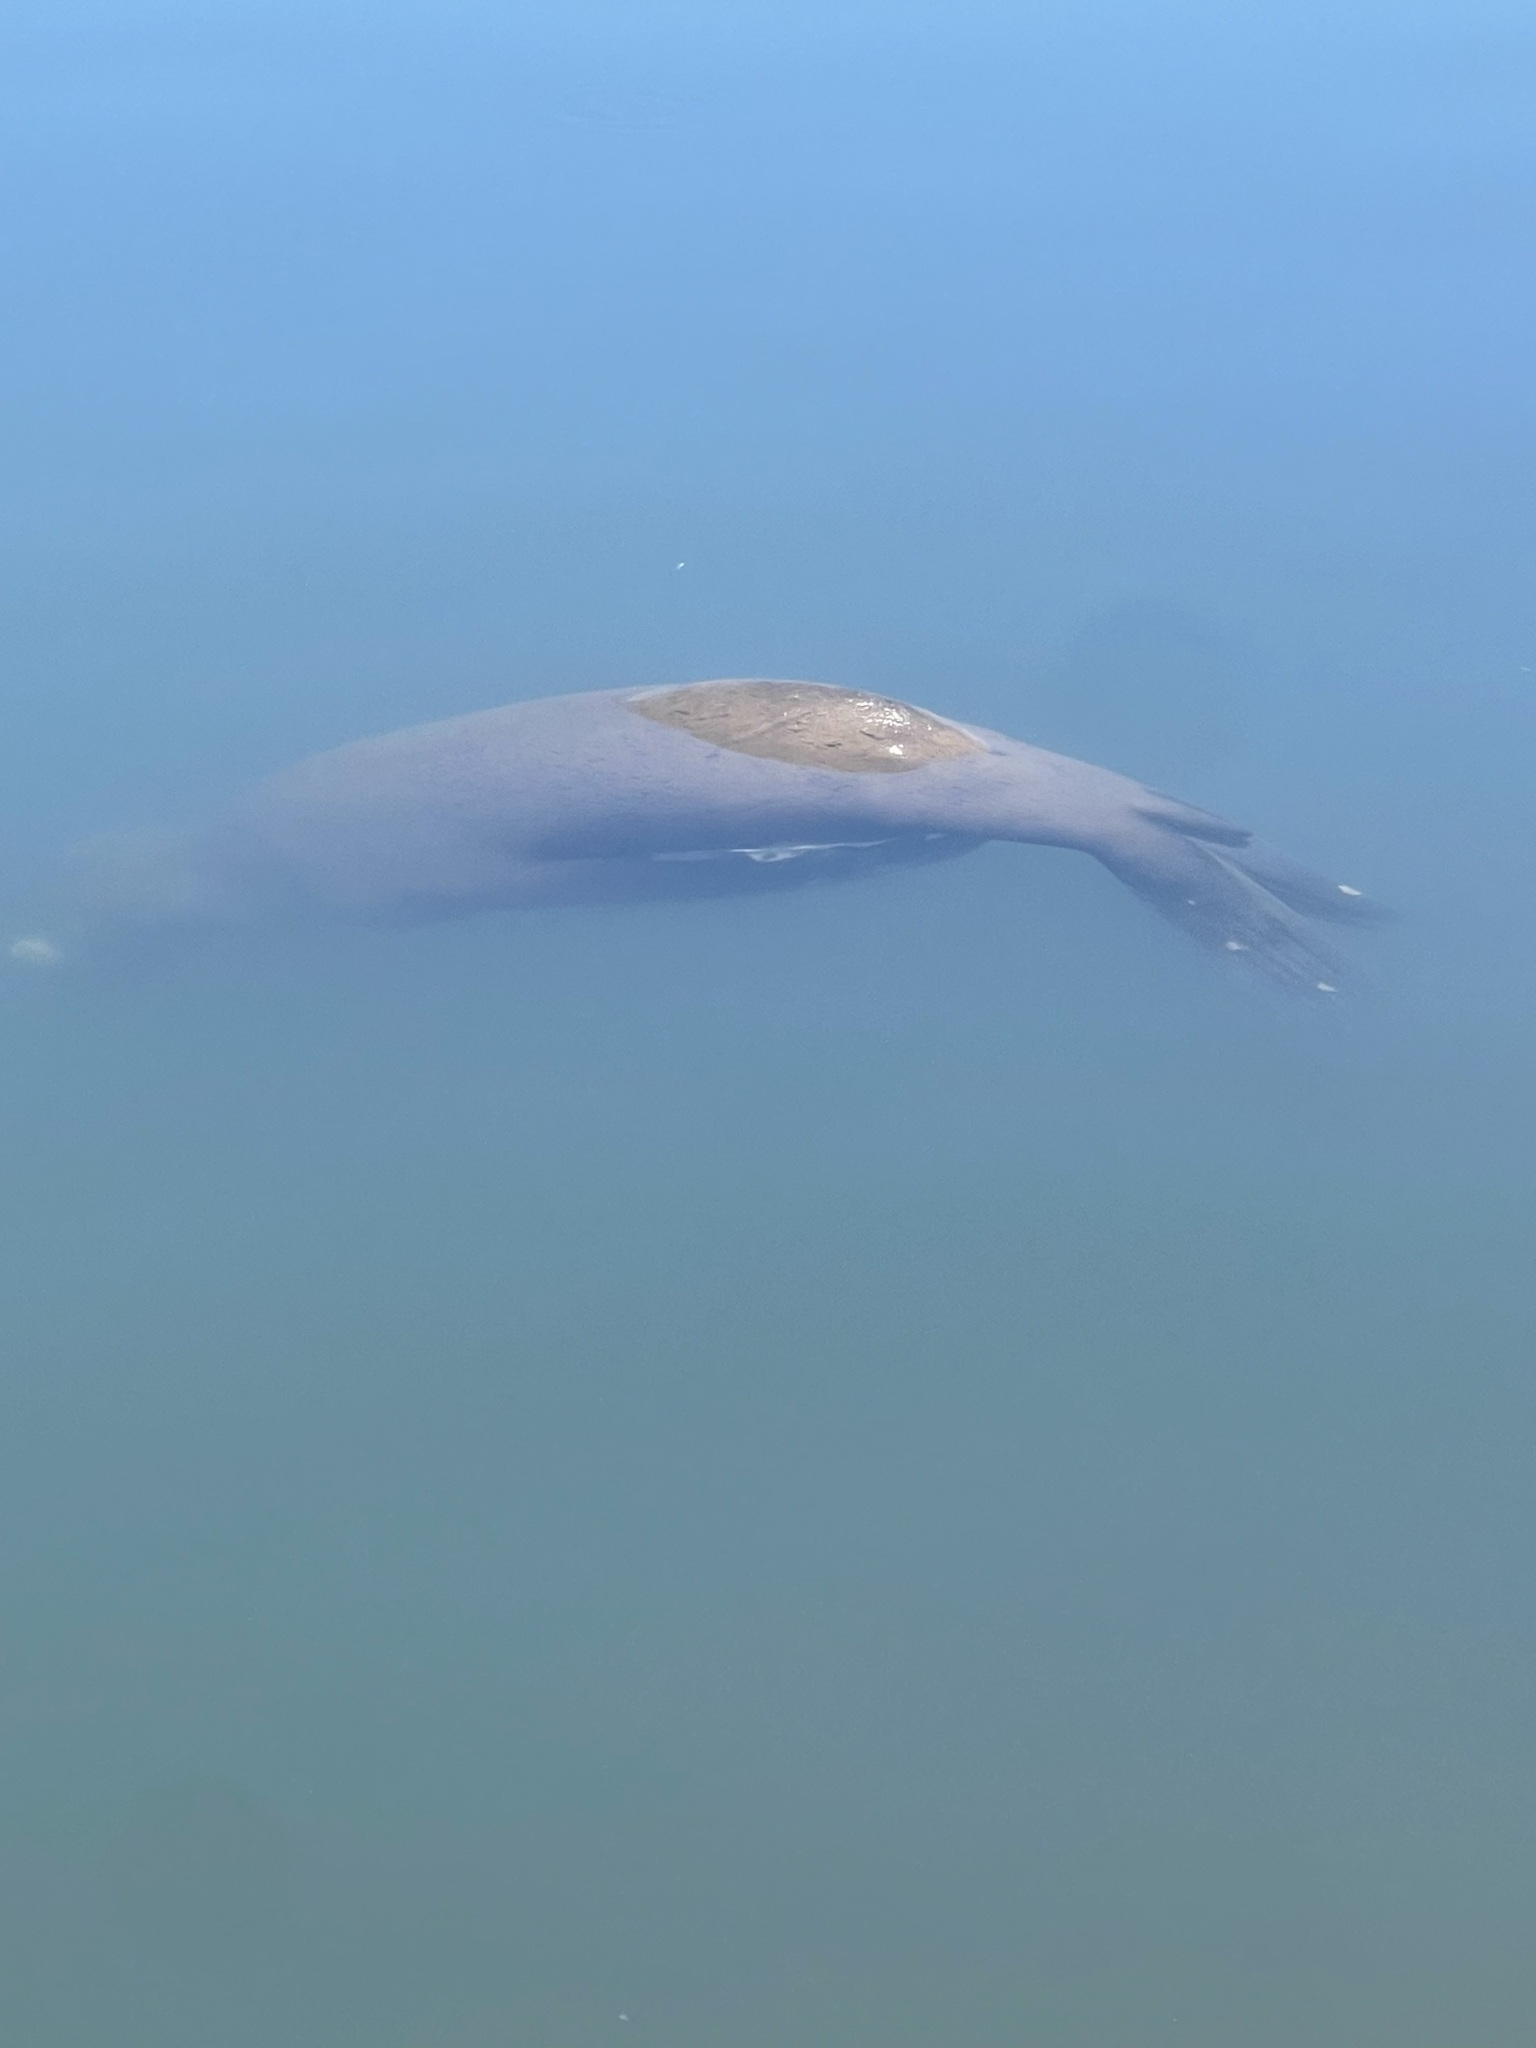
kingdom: Animalia
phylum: Chordata
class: Mammalia
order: Carnivora
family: Otariidae
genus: Zalophus
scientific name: Zalophus californianus
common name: California sea lion
